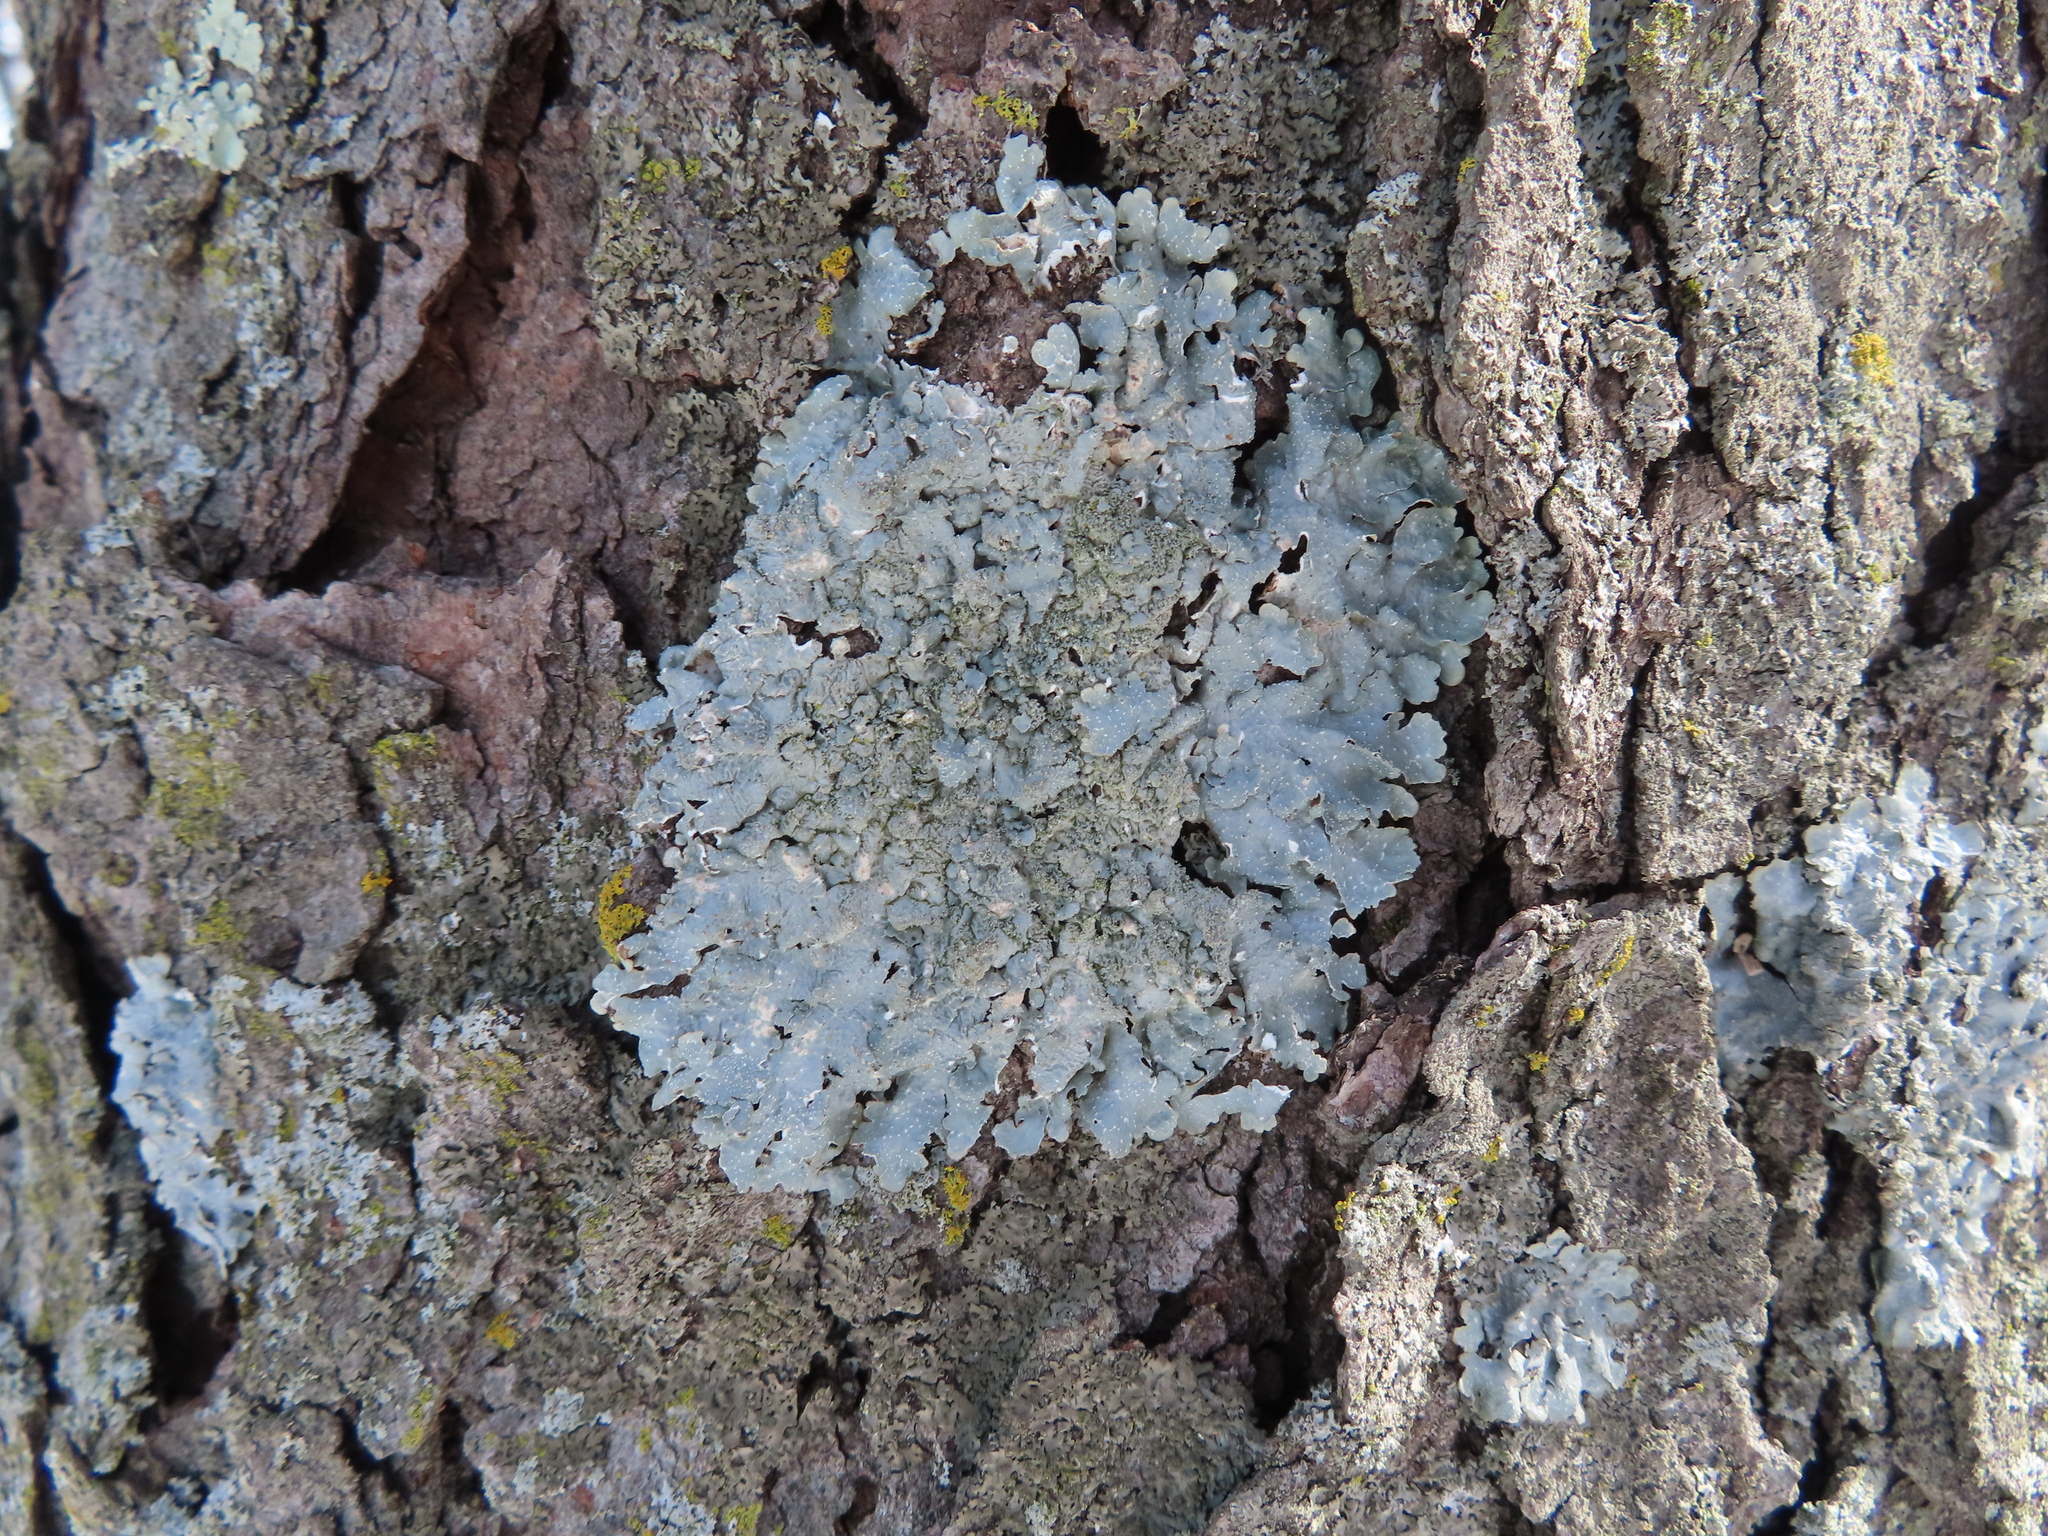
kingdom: Fungi
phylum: Ascomycota
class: Lecanoromycetes
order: Lecanorales
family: Parmeliaceae
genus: Punctelia
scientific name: Punctelia rudecta
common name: Rough speckled shield lichen
